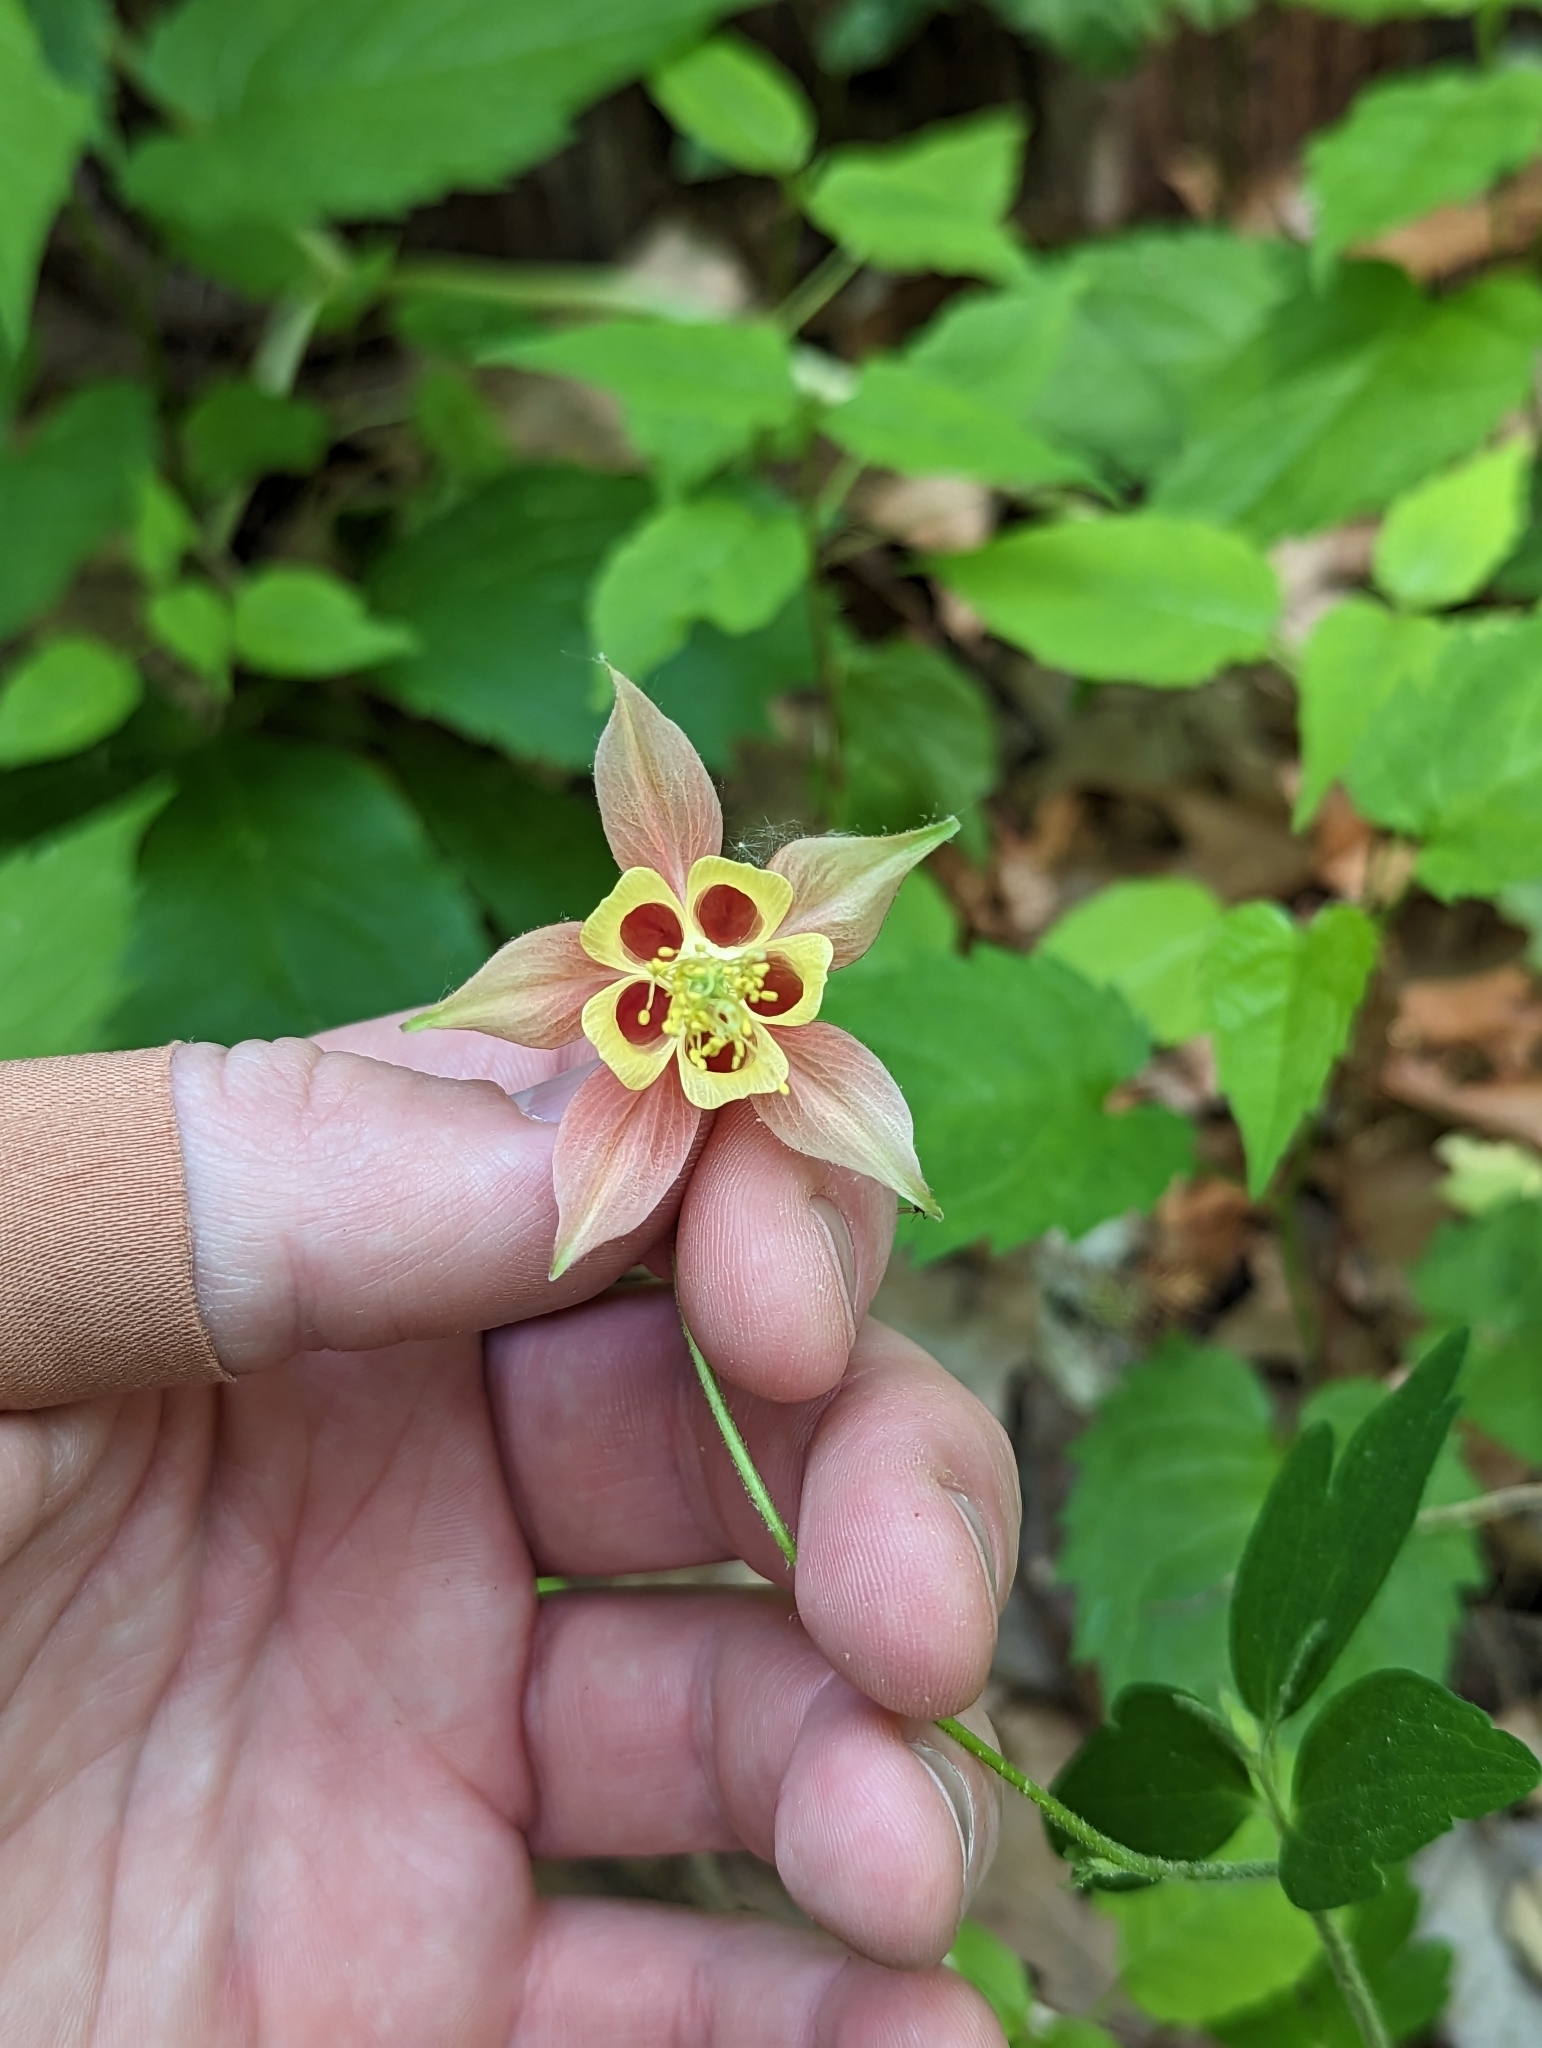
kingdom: Plantae
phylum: Tracheophyta
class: Magnoliopsida
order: Ranunculales
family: Ranunculaceae
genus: Aquilegia
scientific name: Aquilegia canadensis
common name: American columbine
